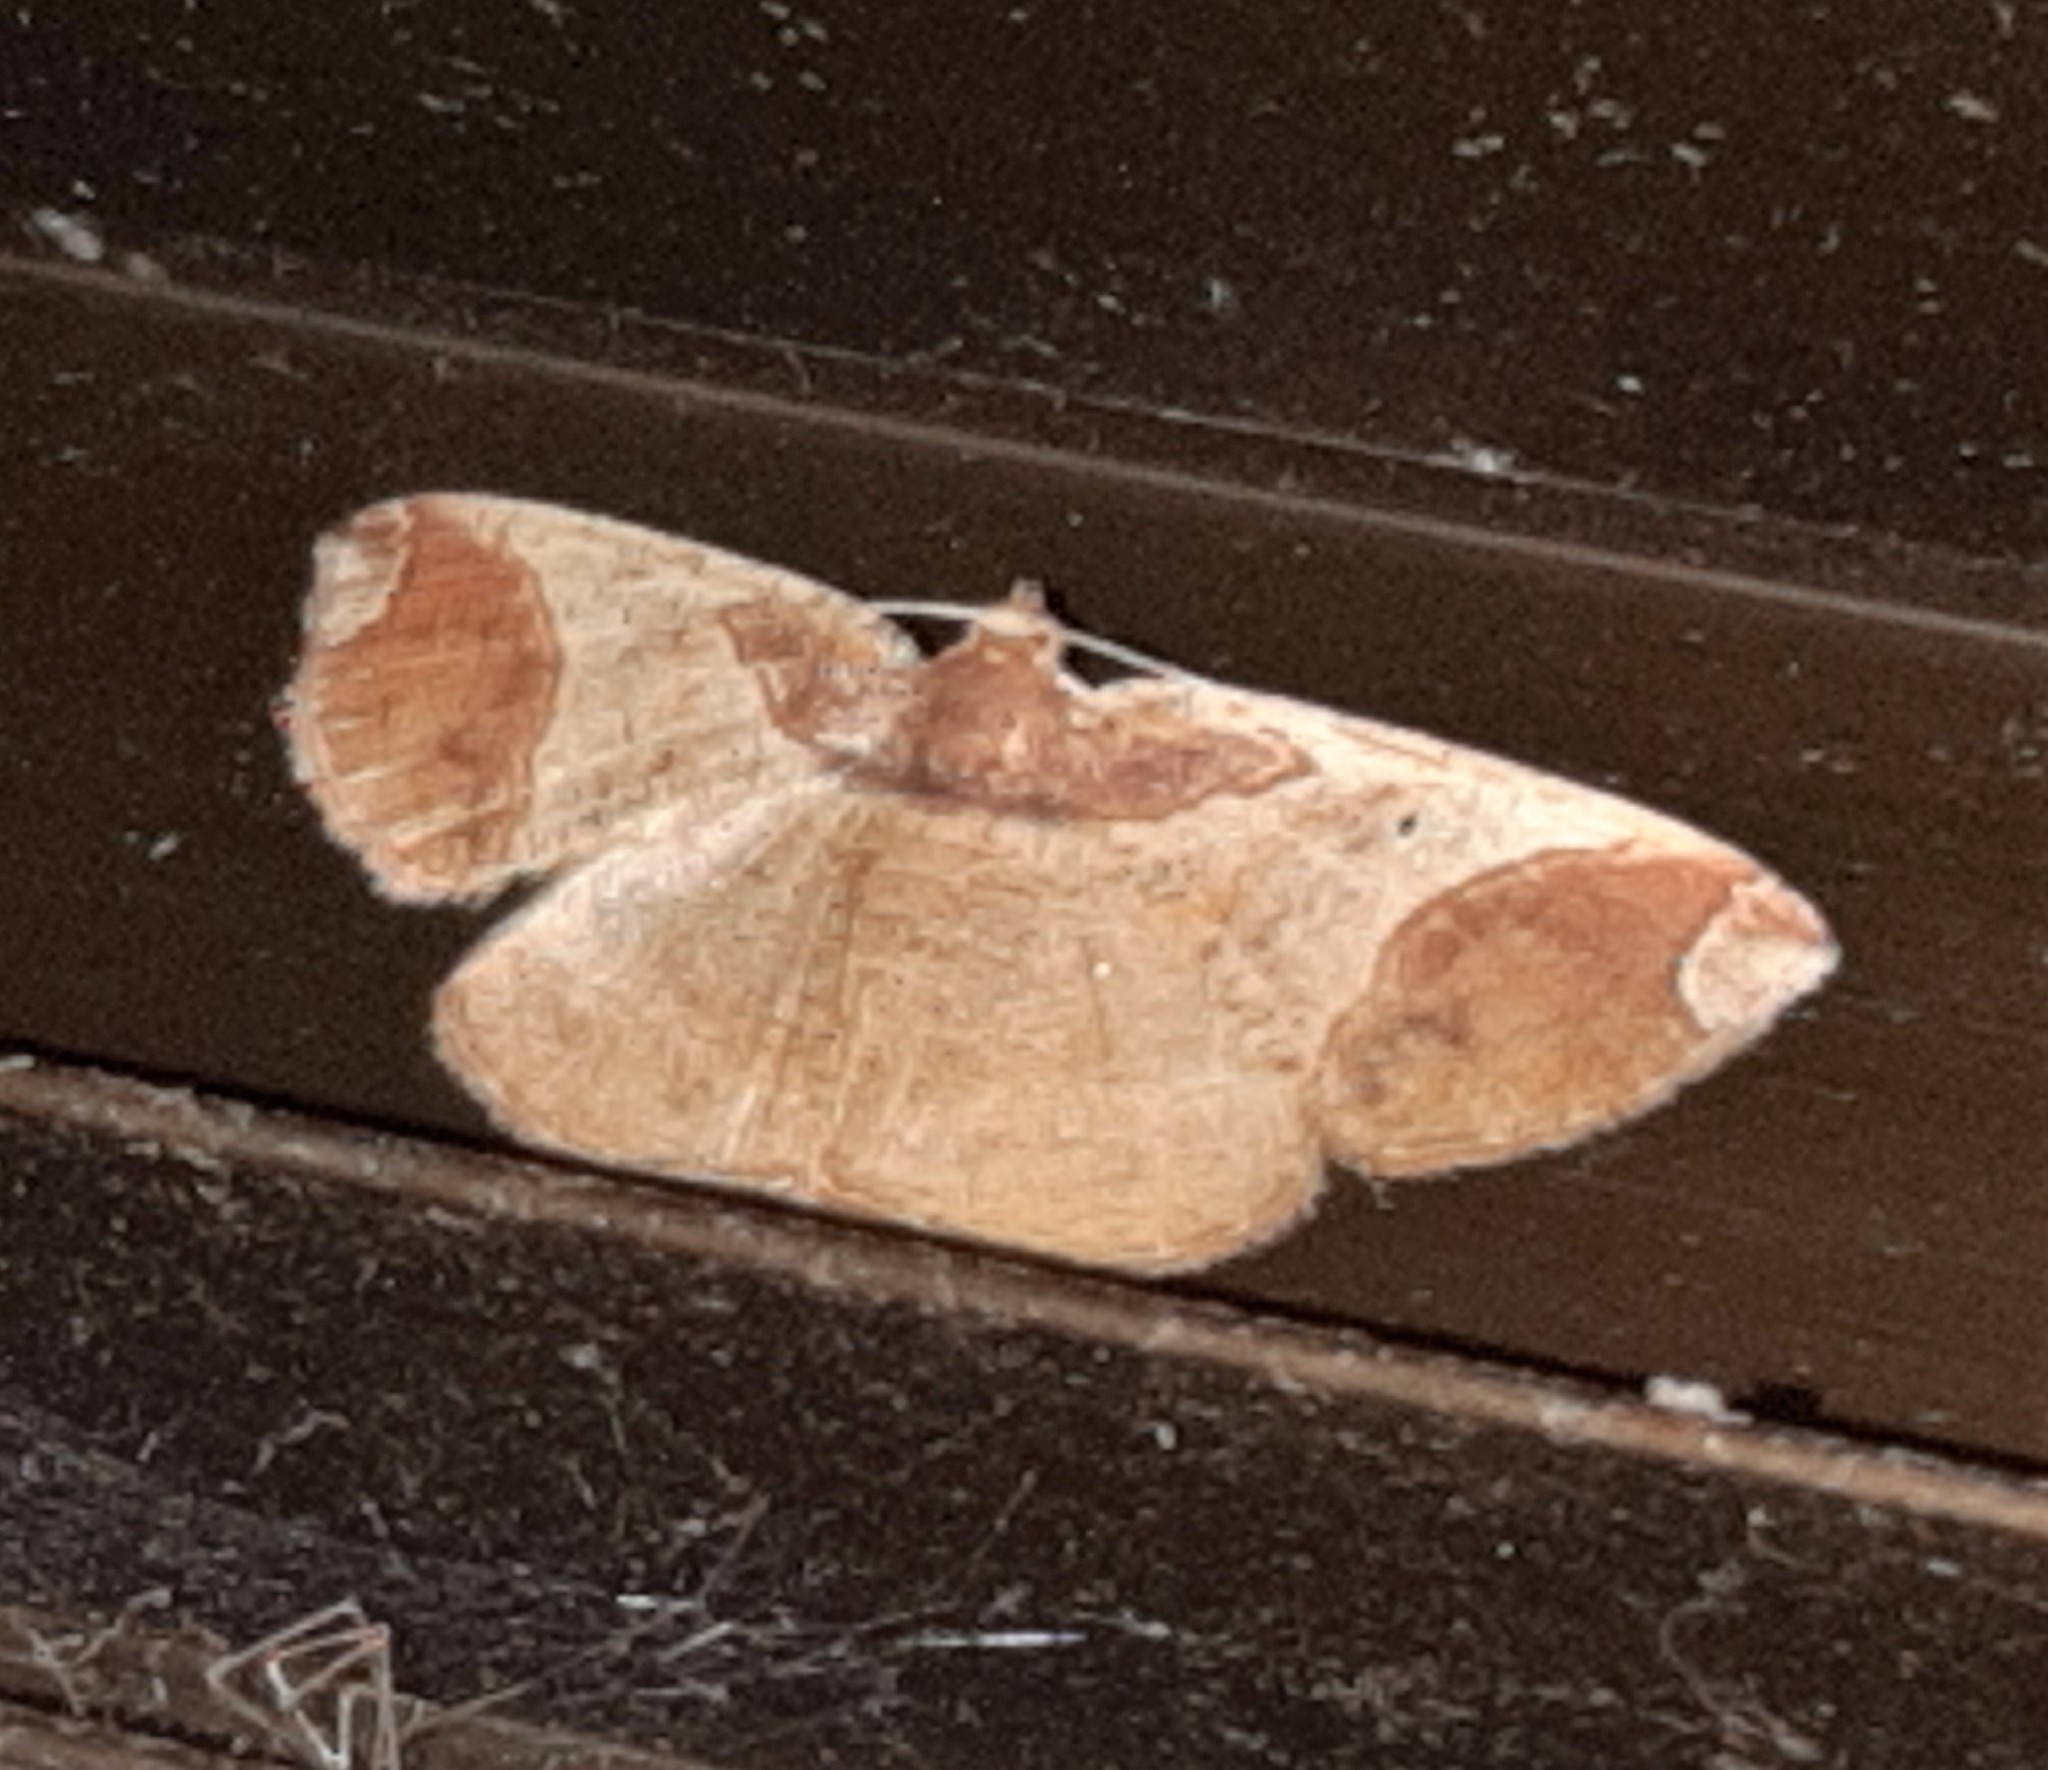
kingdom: Animalia
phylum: Arthropoda
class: Insecta
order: Lepidoptera
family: Geometridae
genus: Thysanopyga
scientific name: Thysanopyga carfinia
